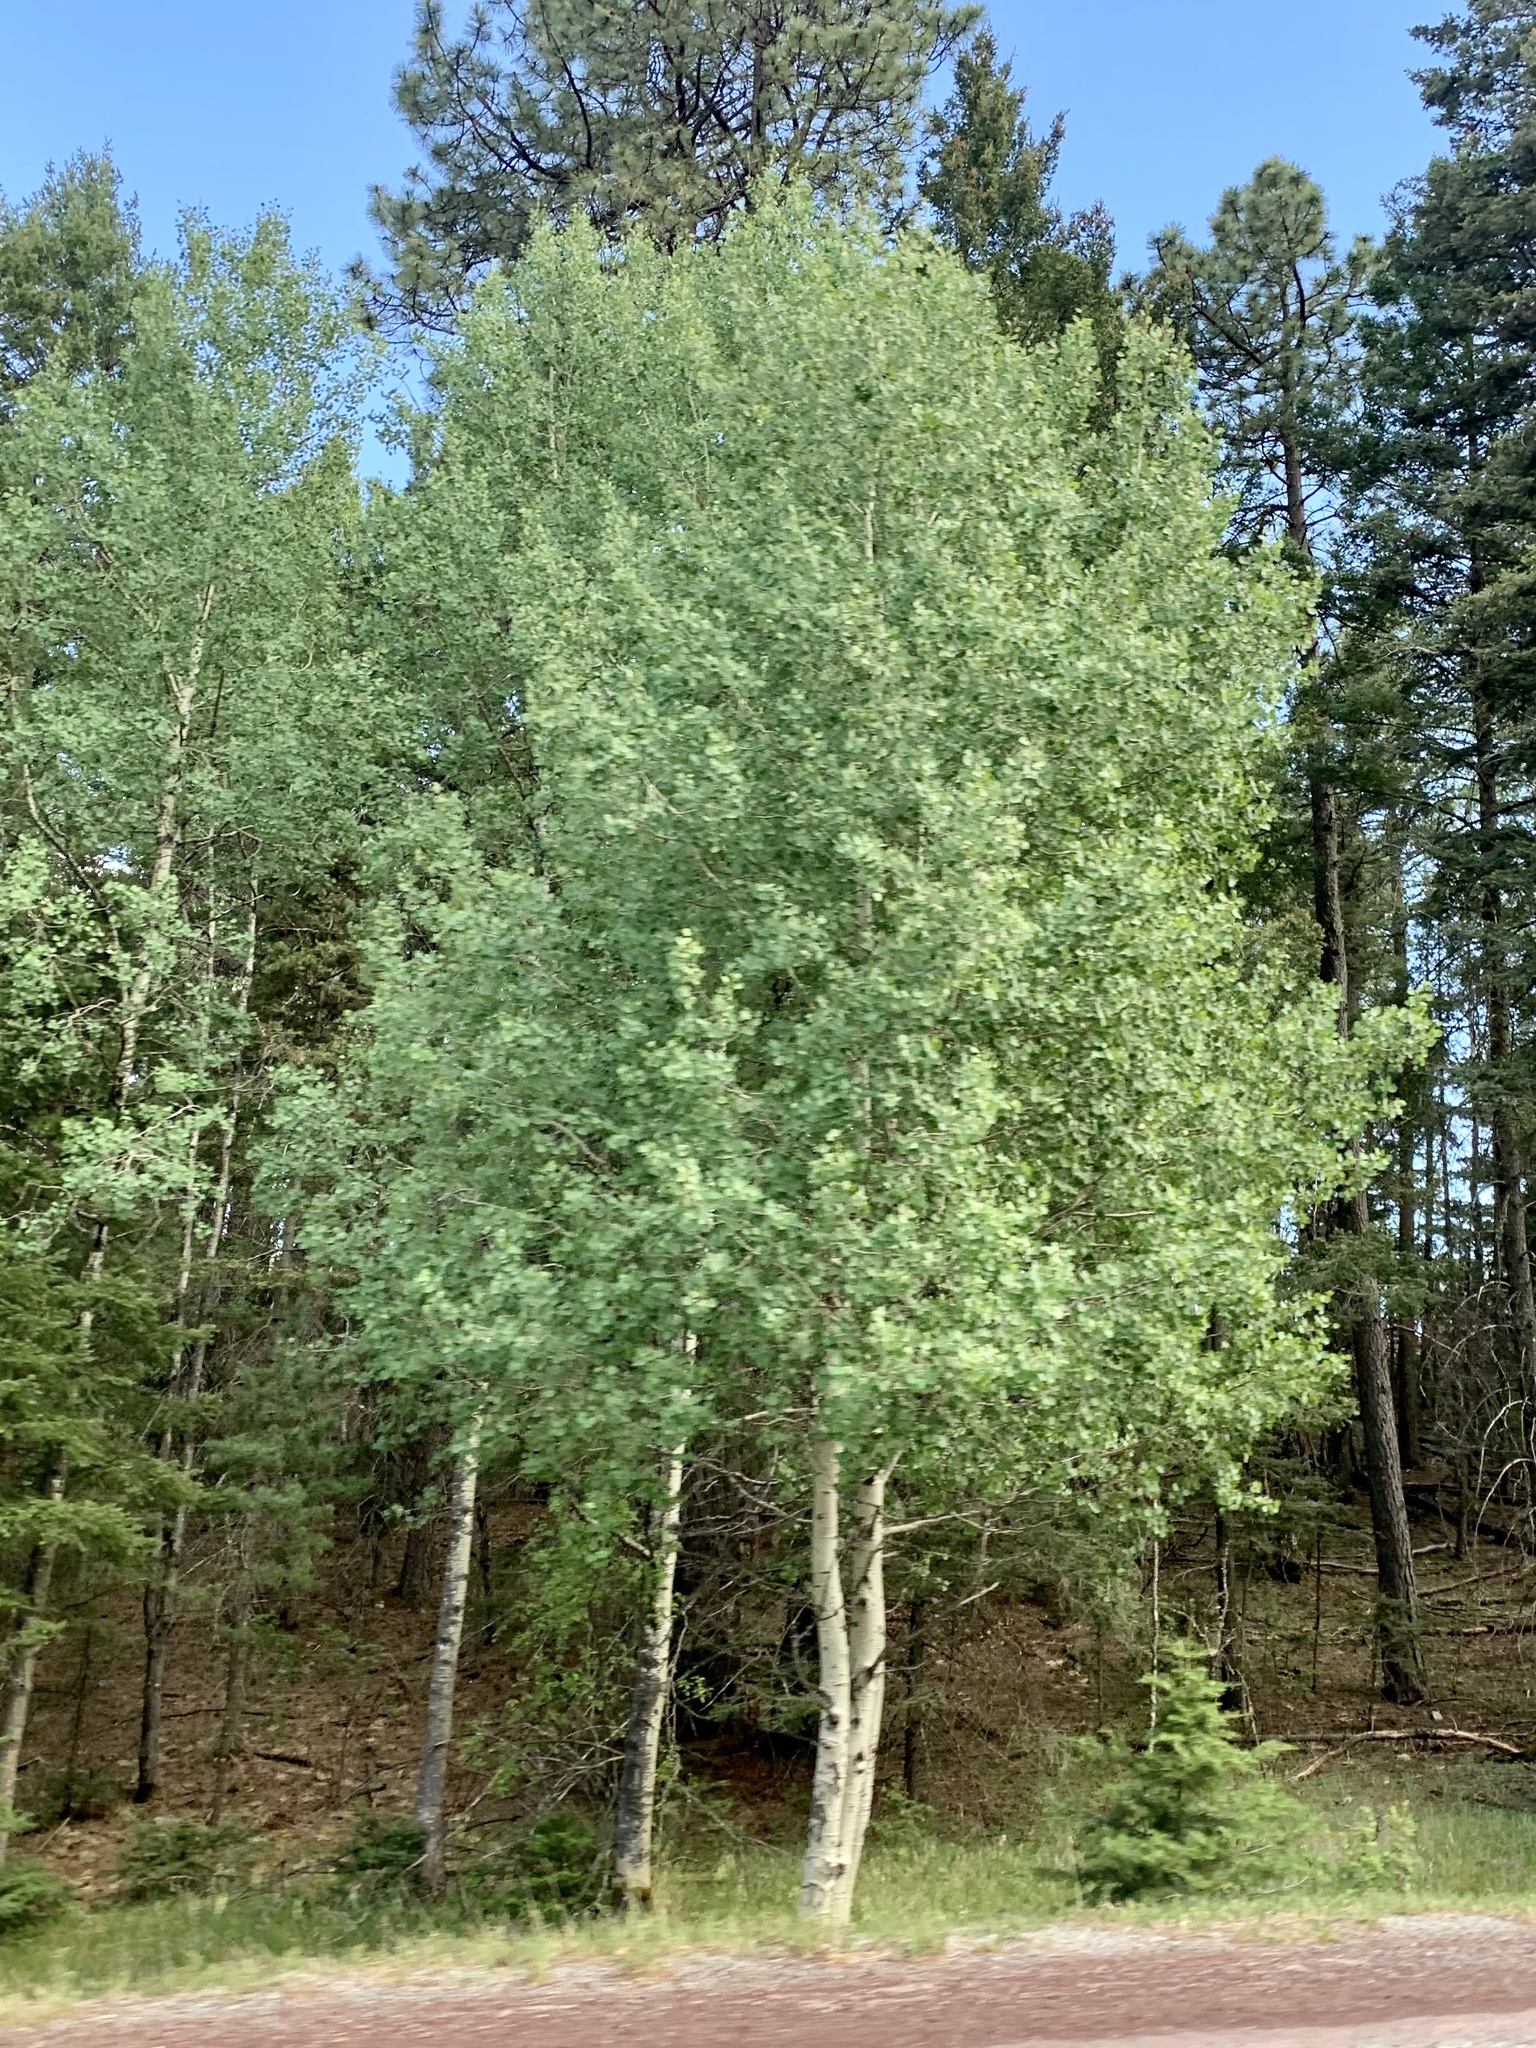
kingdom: Plantae
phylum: Tracheophyta
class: Magnoliopsida
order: Malpighiales
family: Salicaceae
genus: Populus
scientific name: Populus tremuloides
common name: Quaking aspen
